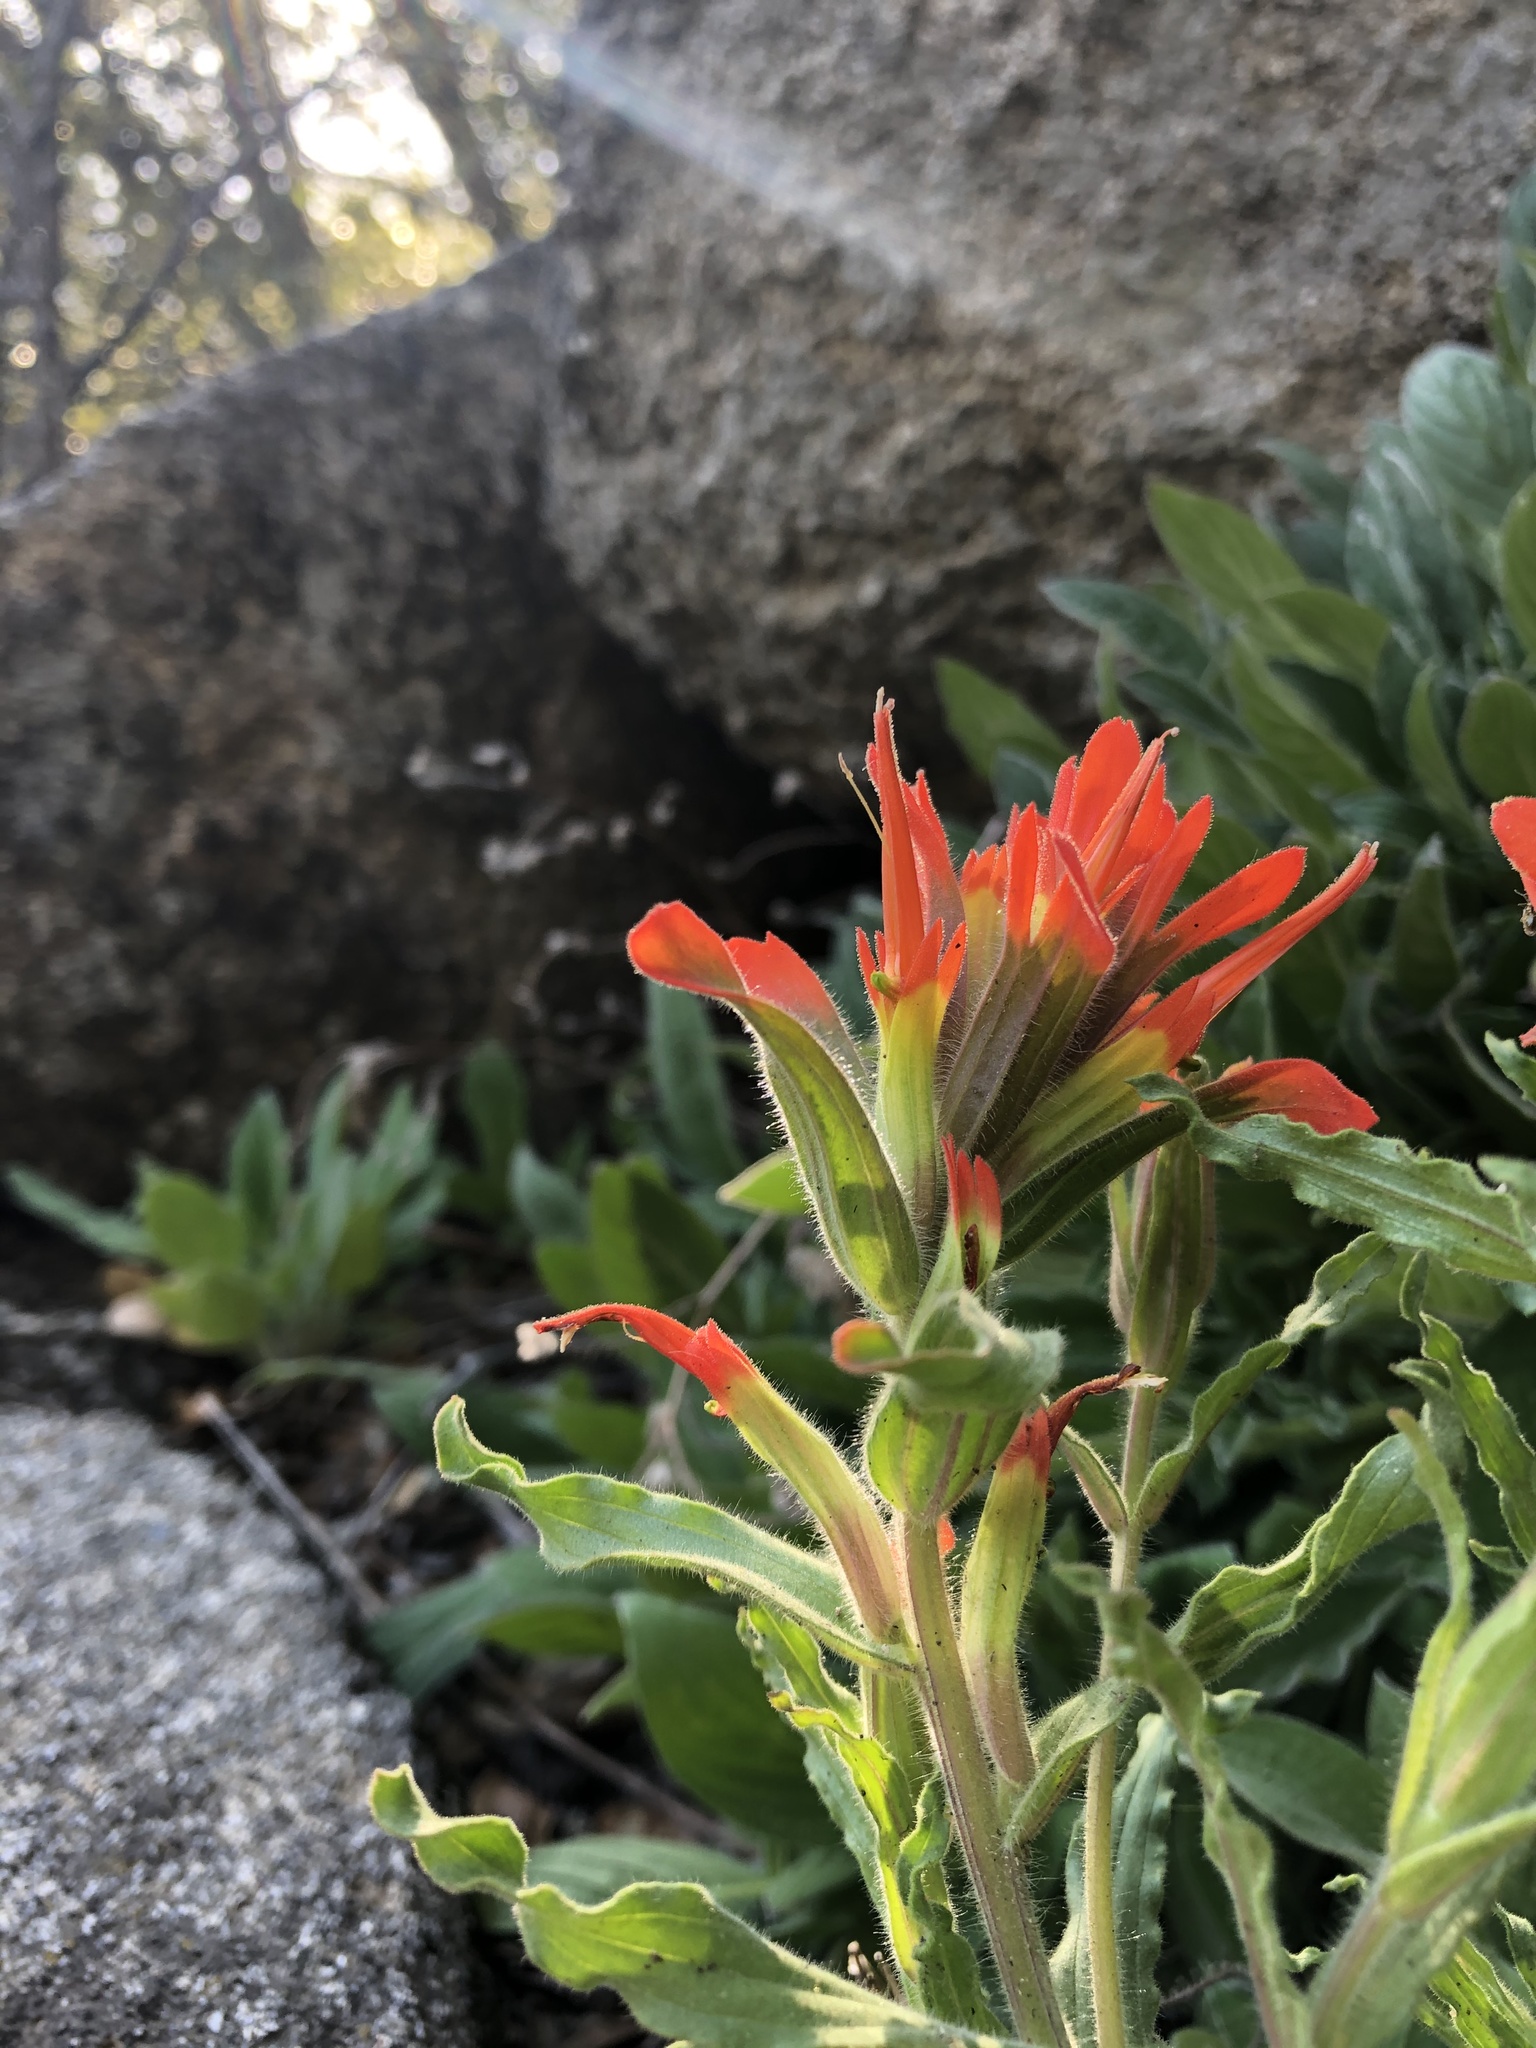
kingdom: Plantae
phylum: Tracheophyta
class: Magnoliopsida
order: Lamiales
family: Orobanchaceae
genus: Castilleja
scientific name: Castilleja applegatei
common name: Wavy-leaf paintbrush
